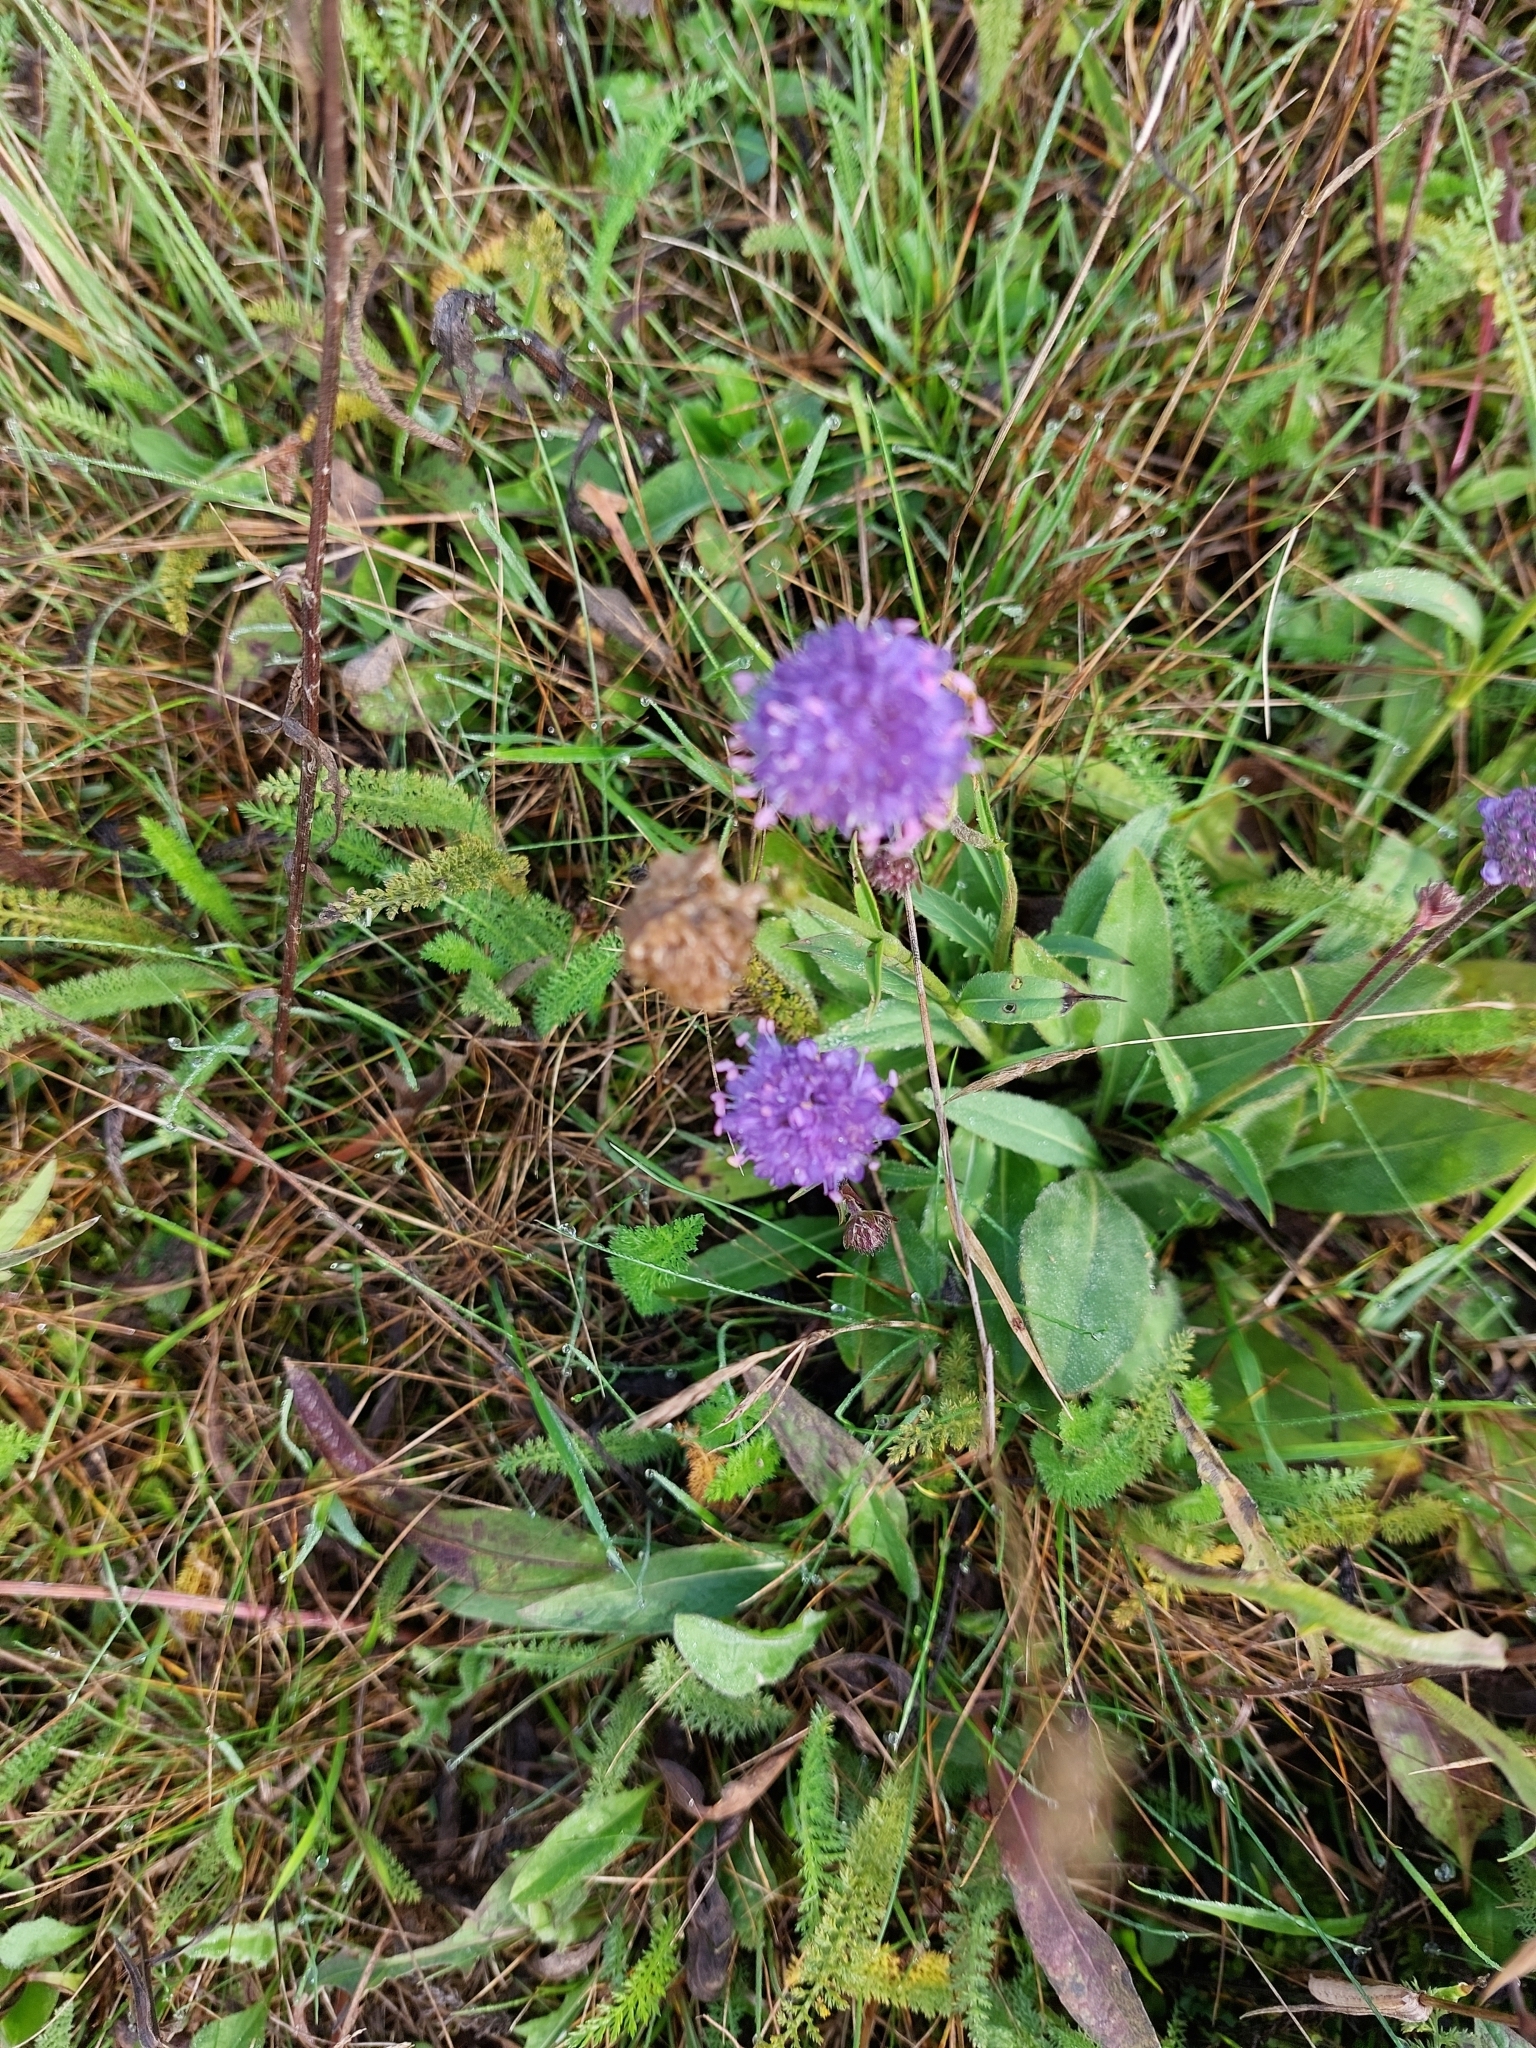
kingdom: Plantae
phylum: Tracheophyta
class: Magnoliopsida
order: Dipsacales
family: Caprifoliaceae
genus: Succisa
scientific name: Succisa pratensis
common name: Devil's-bit
